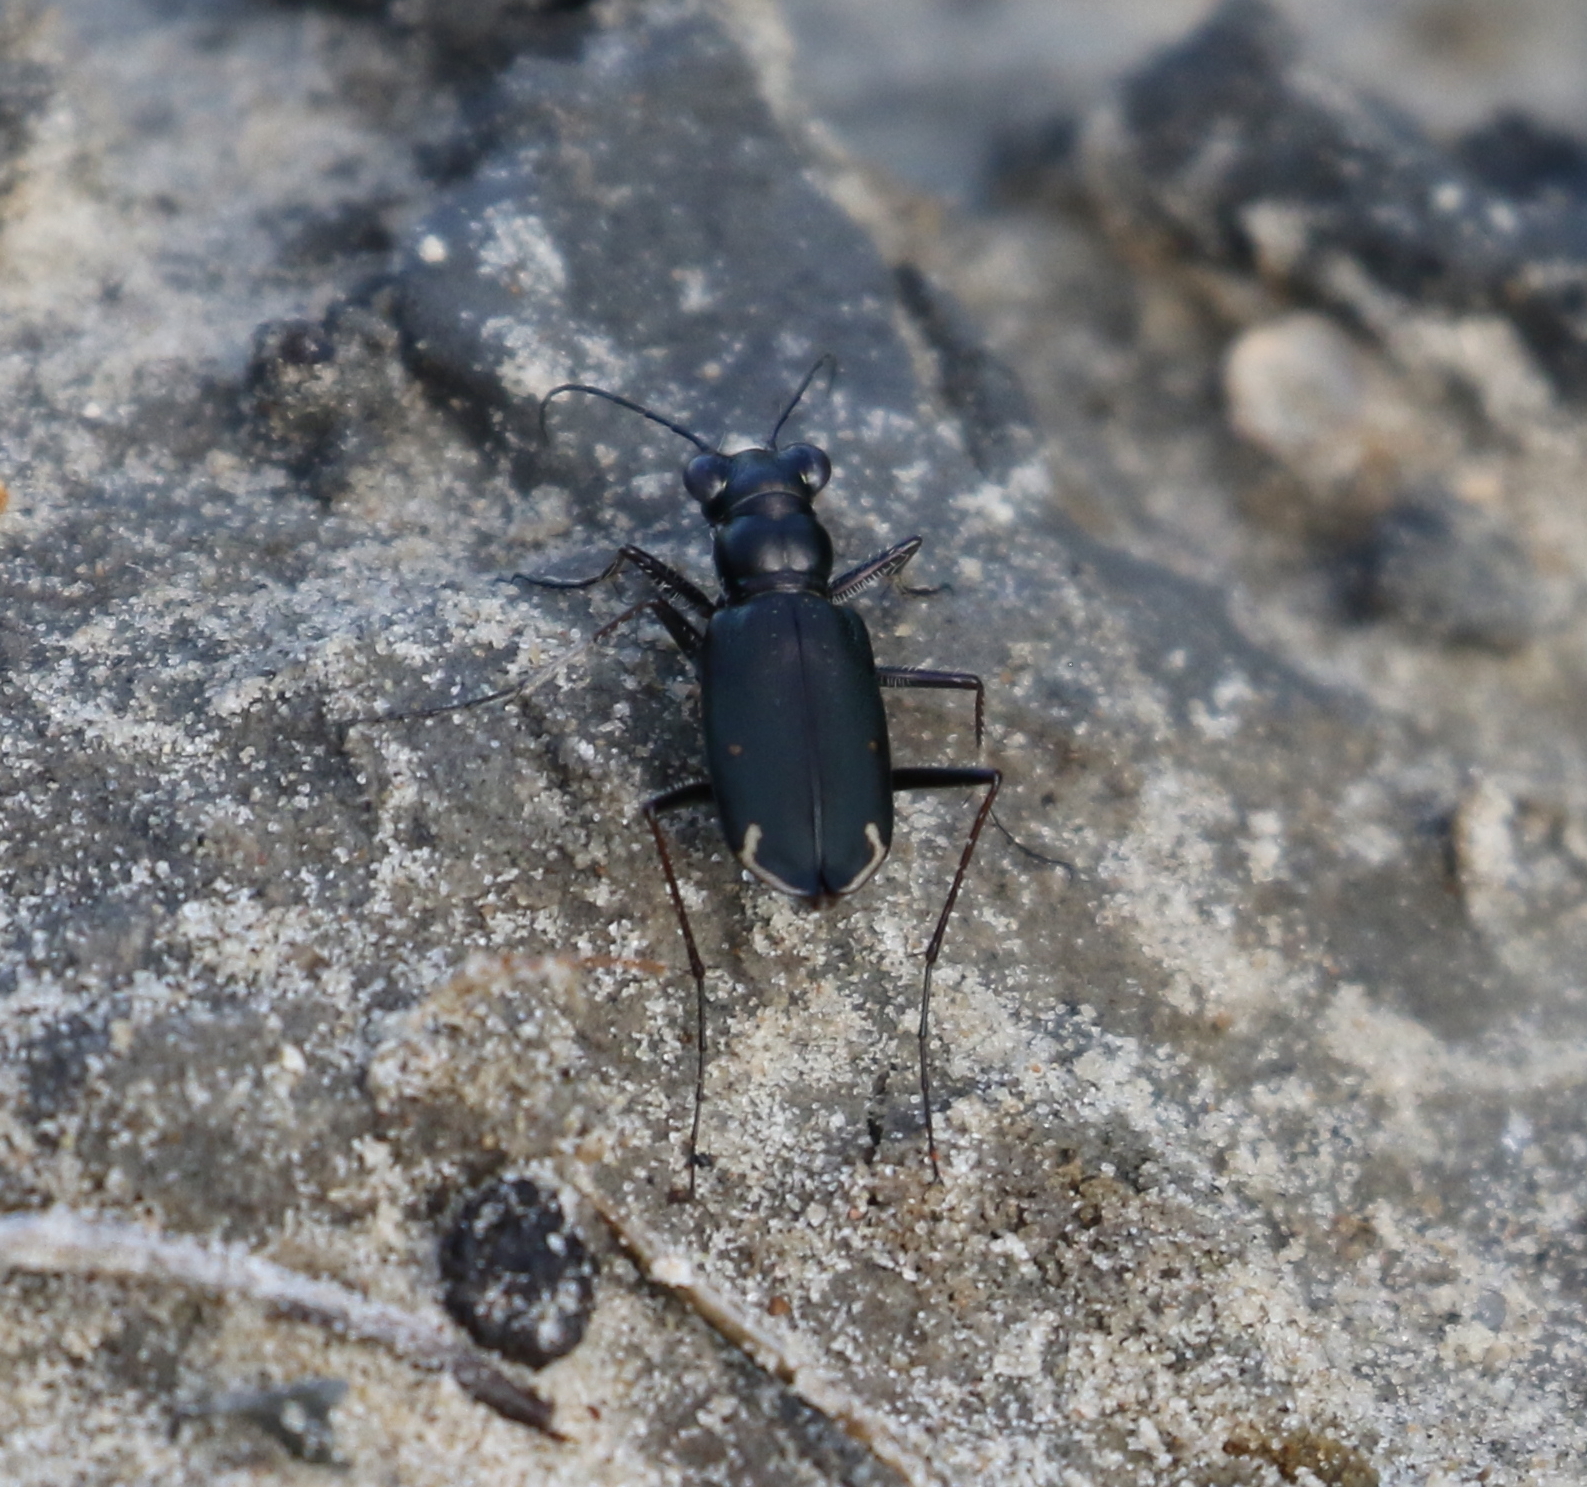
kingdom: Animalia
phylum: Arthropoda
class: Insecta
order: Coleoptera
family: Carabidae
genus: Eunota
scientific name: Eunota severa
